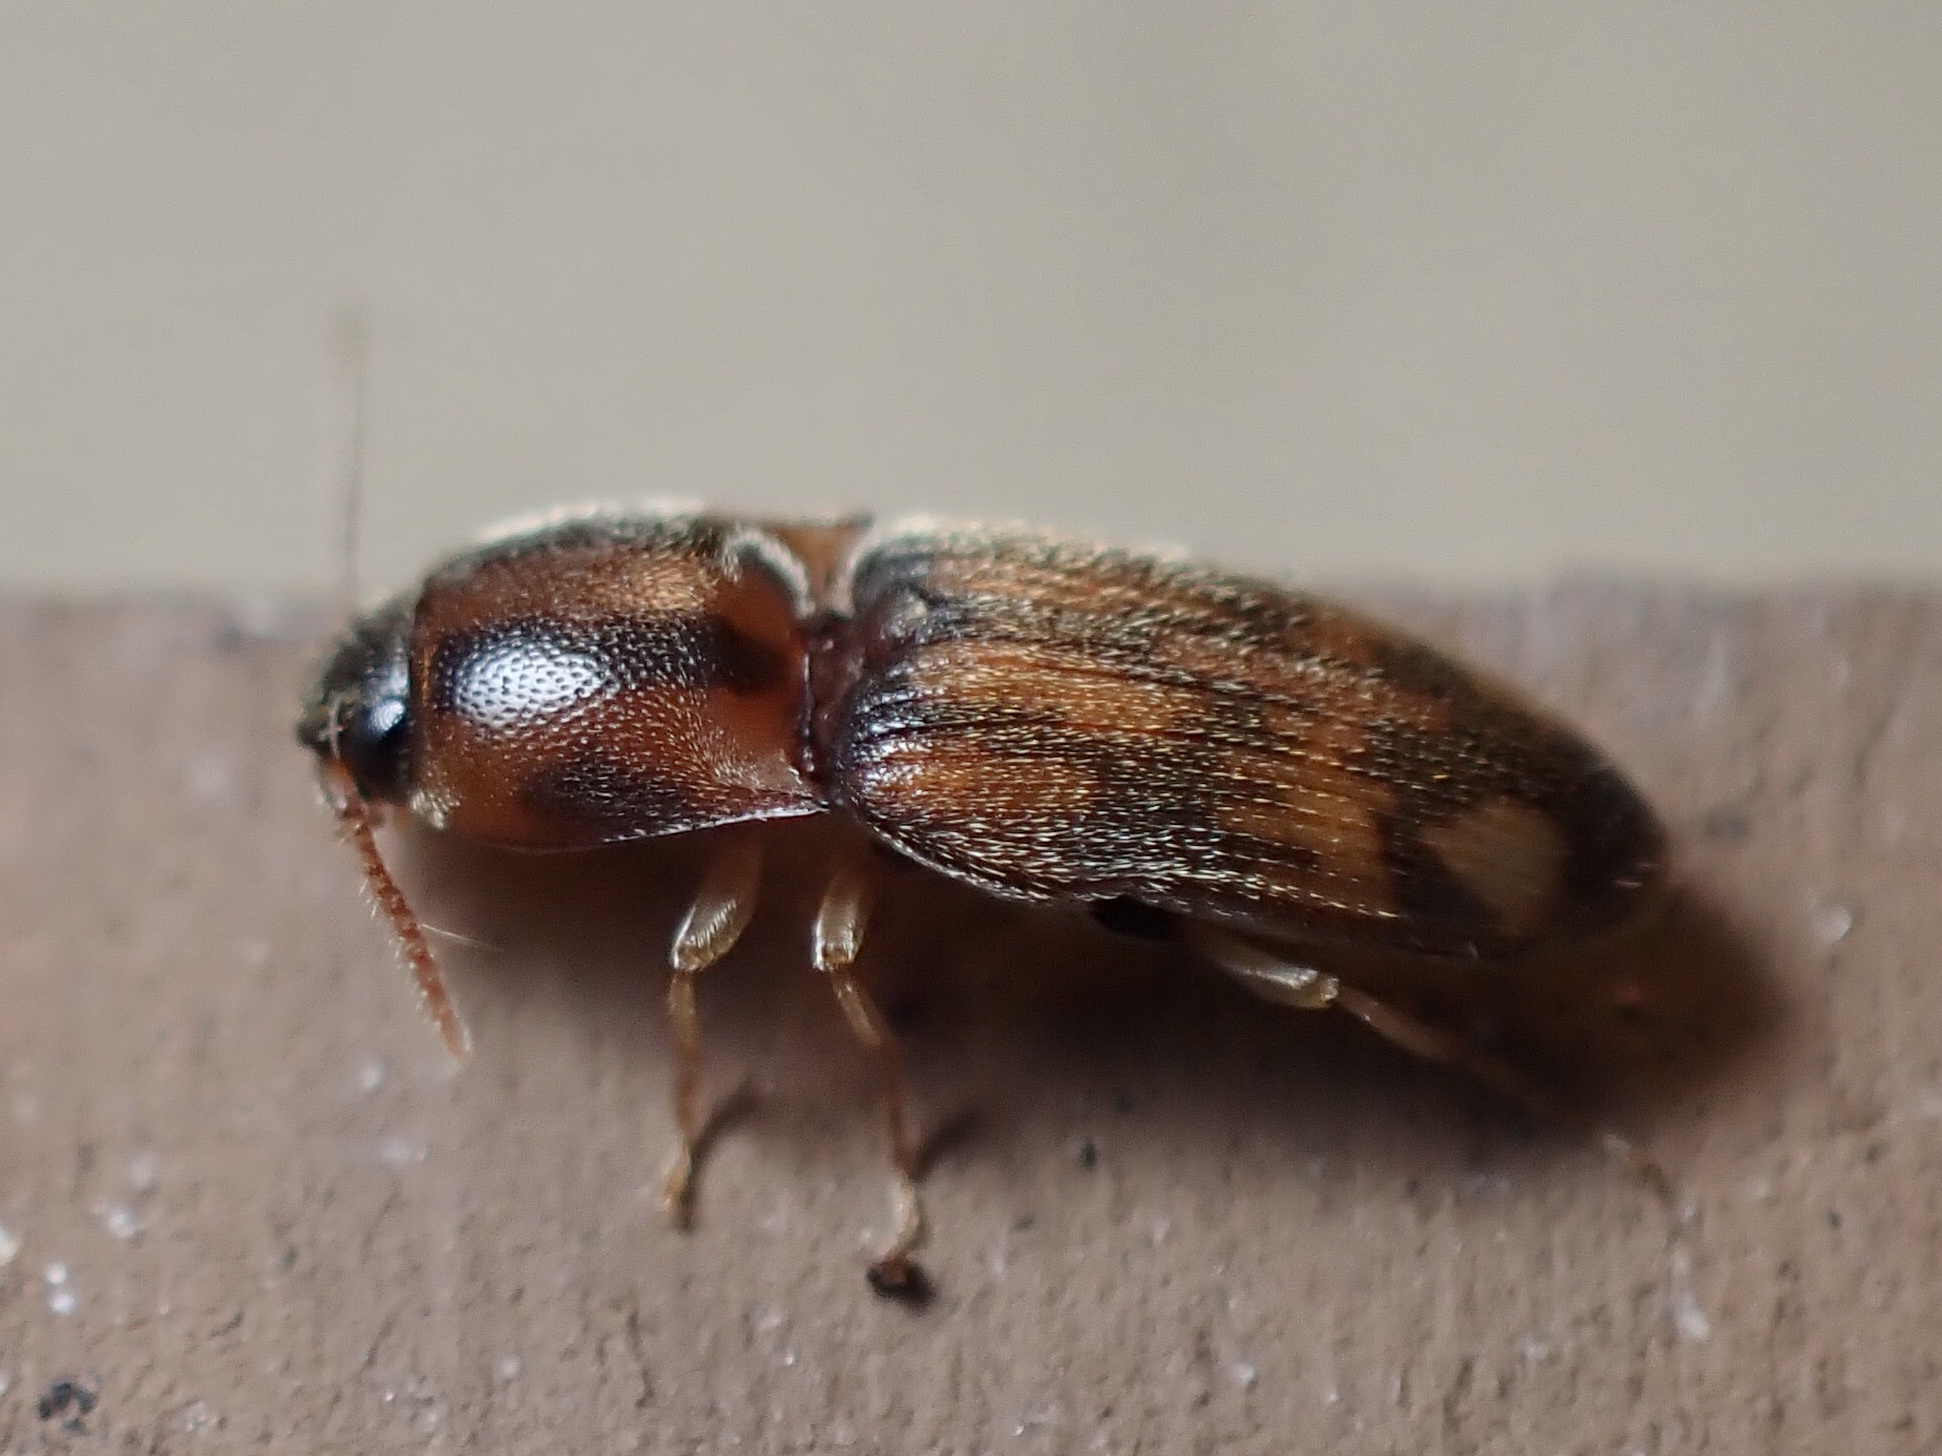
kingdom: Animalia
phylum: Arthropoda
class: Insecta
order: Coleoptera
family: Elateridae
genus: Monocrepidius
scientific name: Monocrepidius bellus
